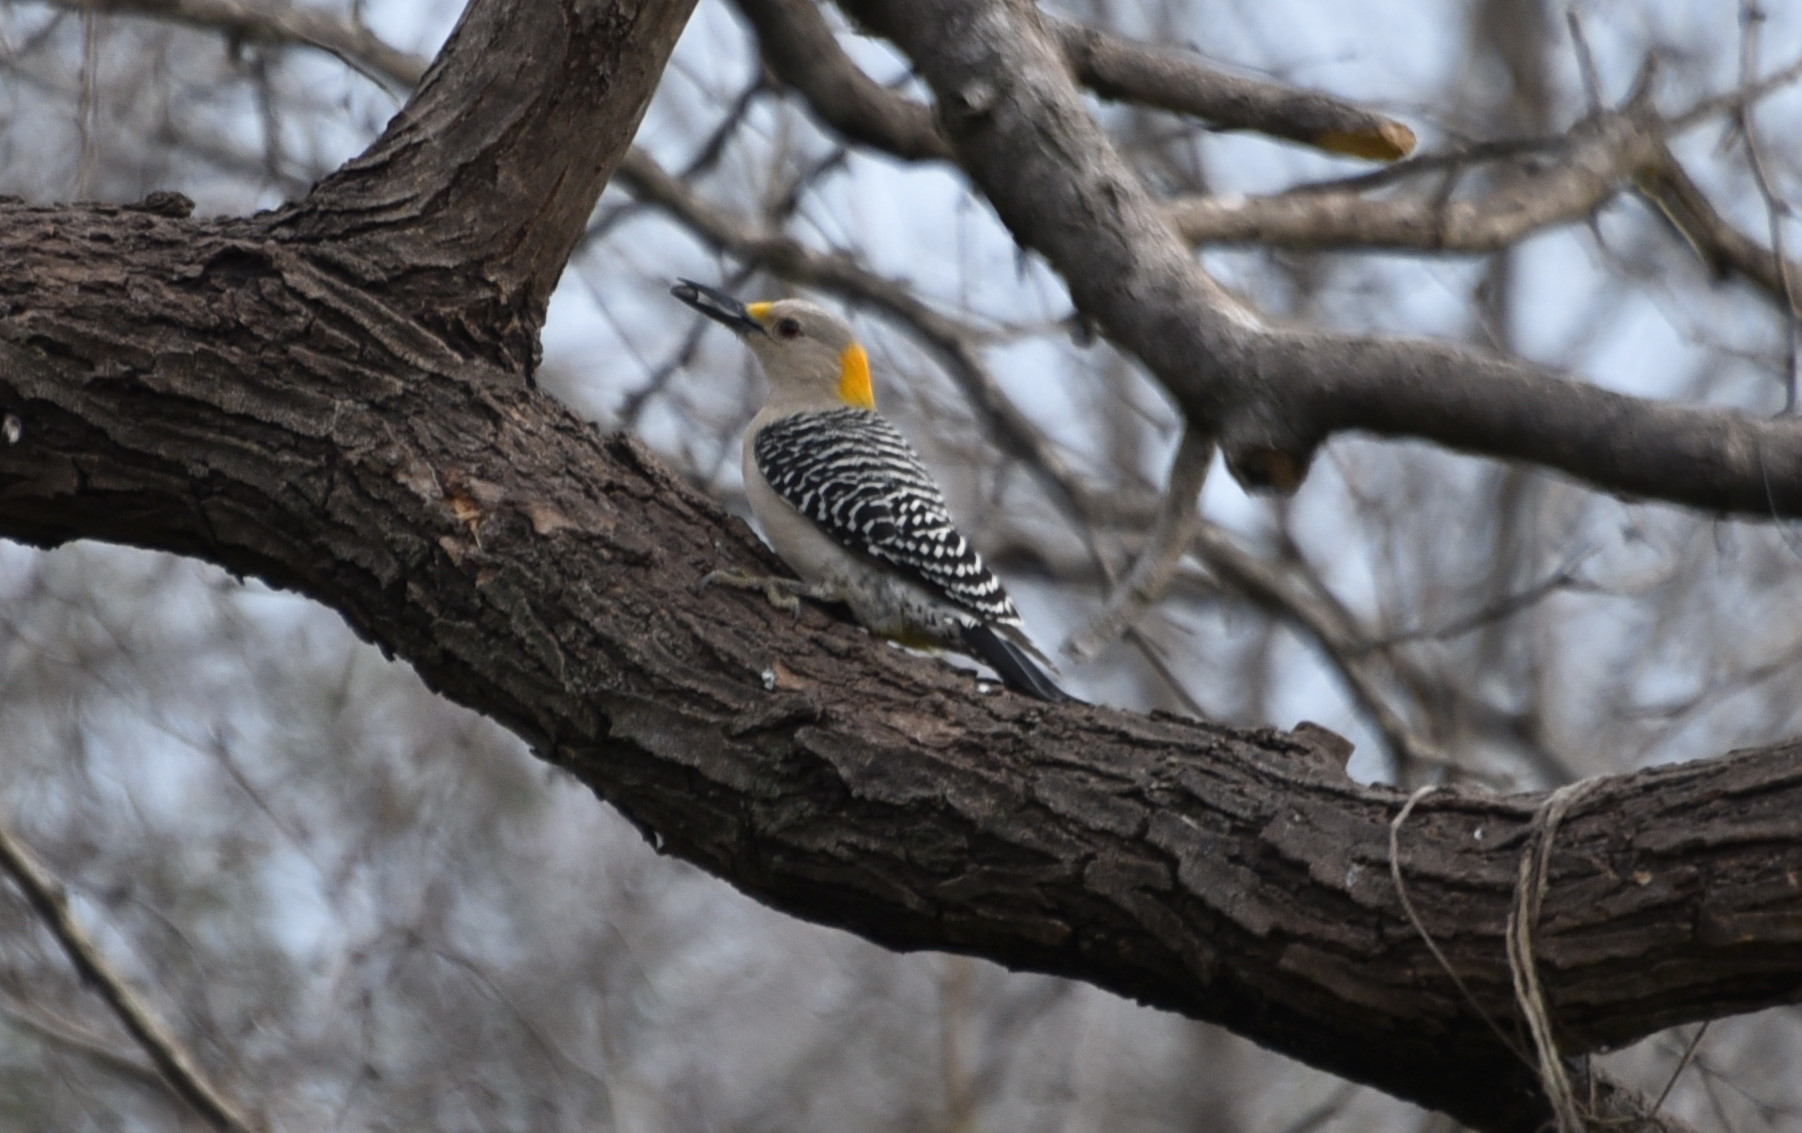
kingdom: Animalia
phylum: Chordata
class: Aves
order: Piciformes
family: Picidae
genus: Melanerpes
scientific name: Melanerpes aurifrons
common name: Golden-fronted woodpecker
